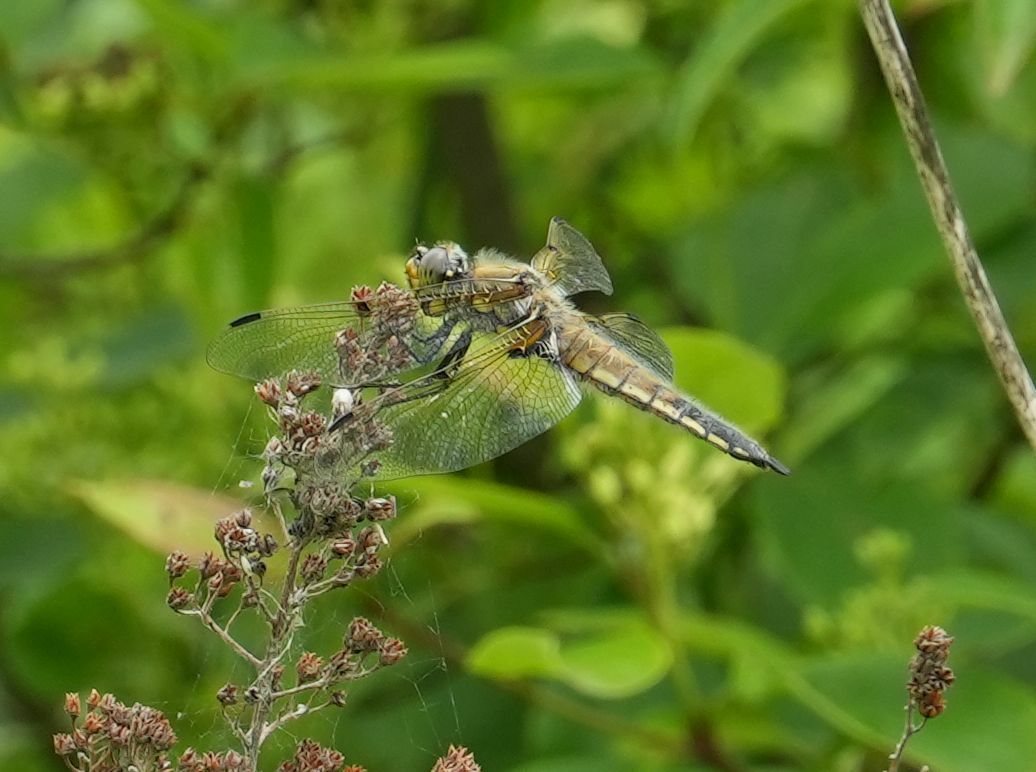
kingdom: Animalia
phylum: Arthropoda
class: Insecta
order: Odonata
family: Libellulidae
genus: Libellula
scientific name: Libellula quadrimaculata
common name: Four-spotted chaser
